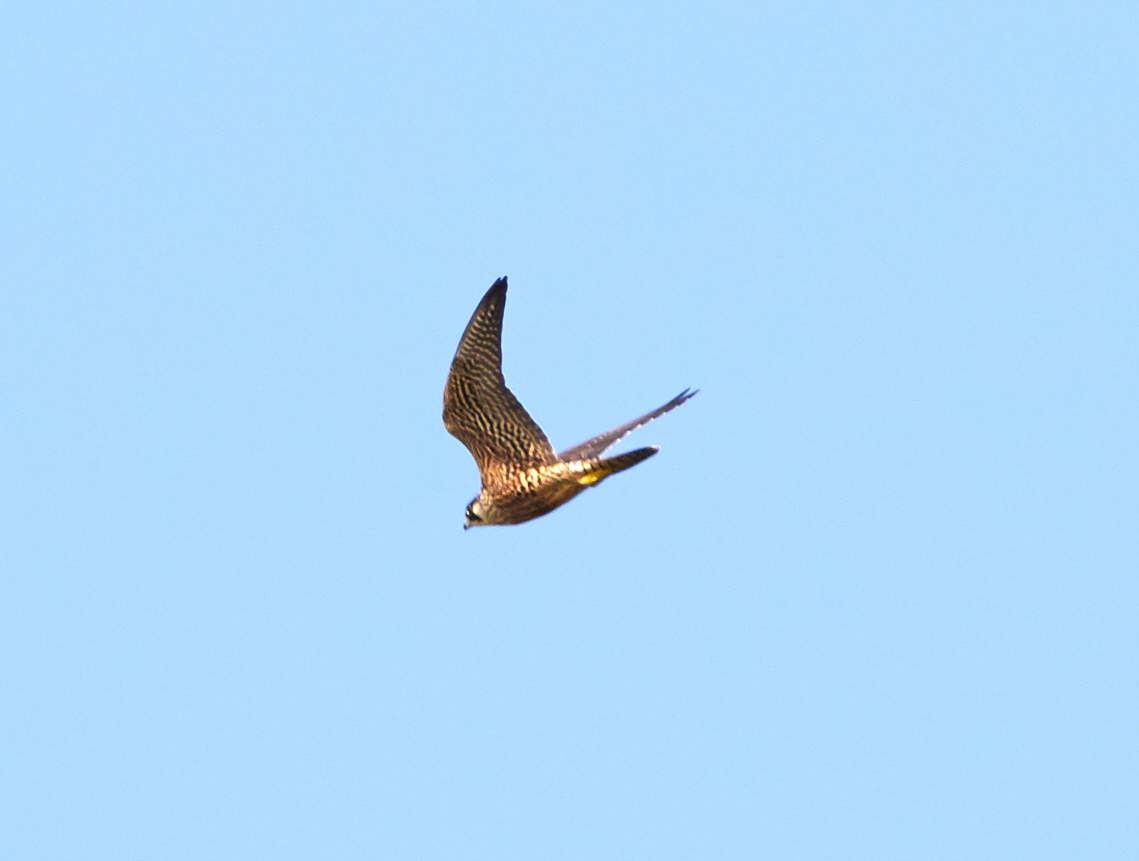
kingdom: Animalia
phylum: Chordata
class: Aves
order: Falconiformes
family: Falconidae
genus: Falco
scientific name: Falco peregrinus
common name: Peregrine falcon
